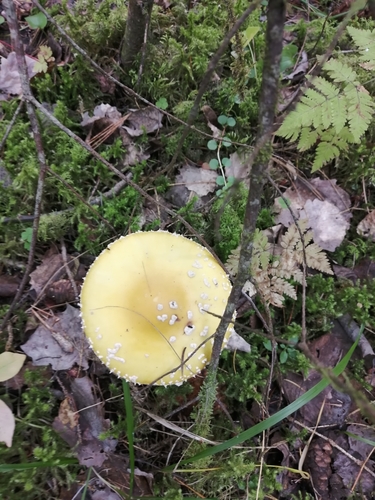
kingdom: Fungi
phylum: Basidiomycota
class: Agaricomycetes
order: Agaricales
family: Amanitaceae
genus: Amanita
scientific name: Amanita regalis
